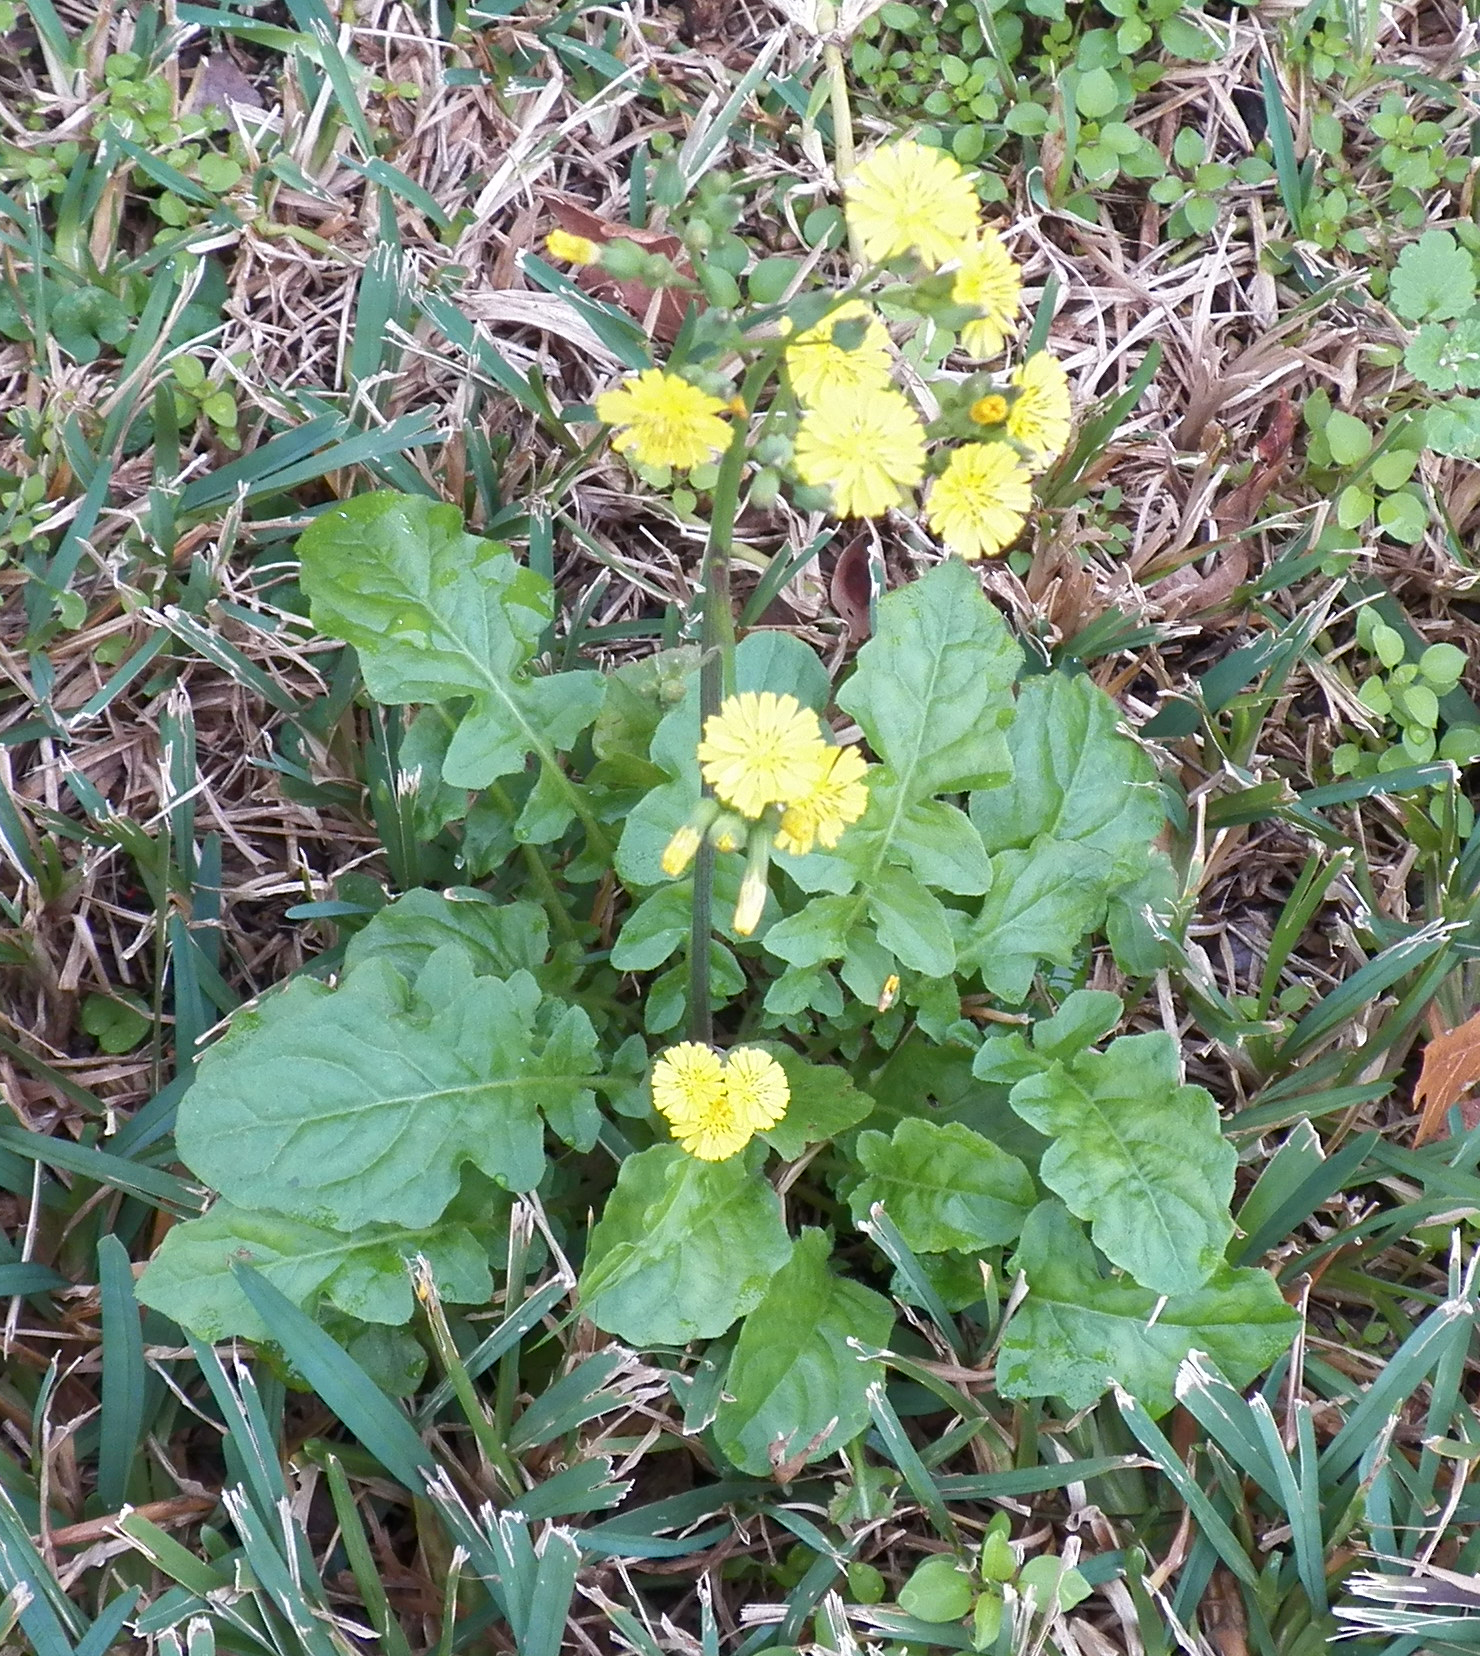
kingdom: Plantae
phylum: Tracheophyta
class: Magnoliopsida
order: Asterales
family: Asteraceae
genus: Youngia
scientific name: Youngia japonica
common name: Oriental false hawksbeard
